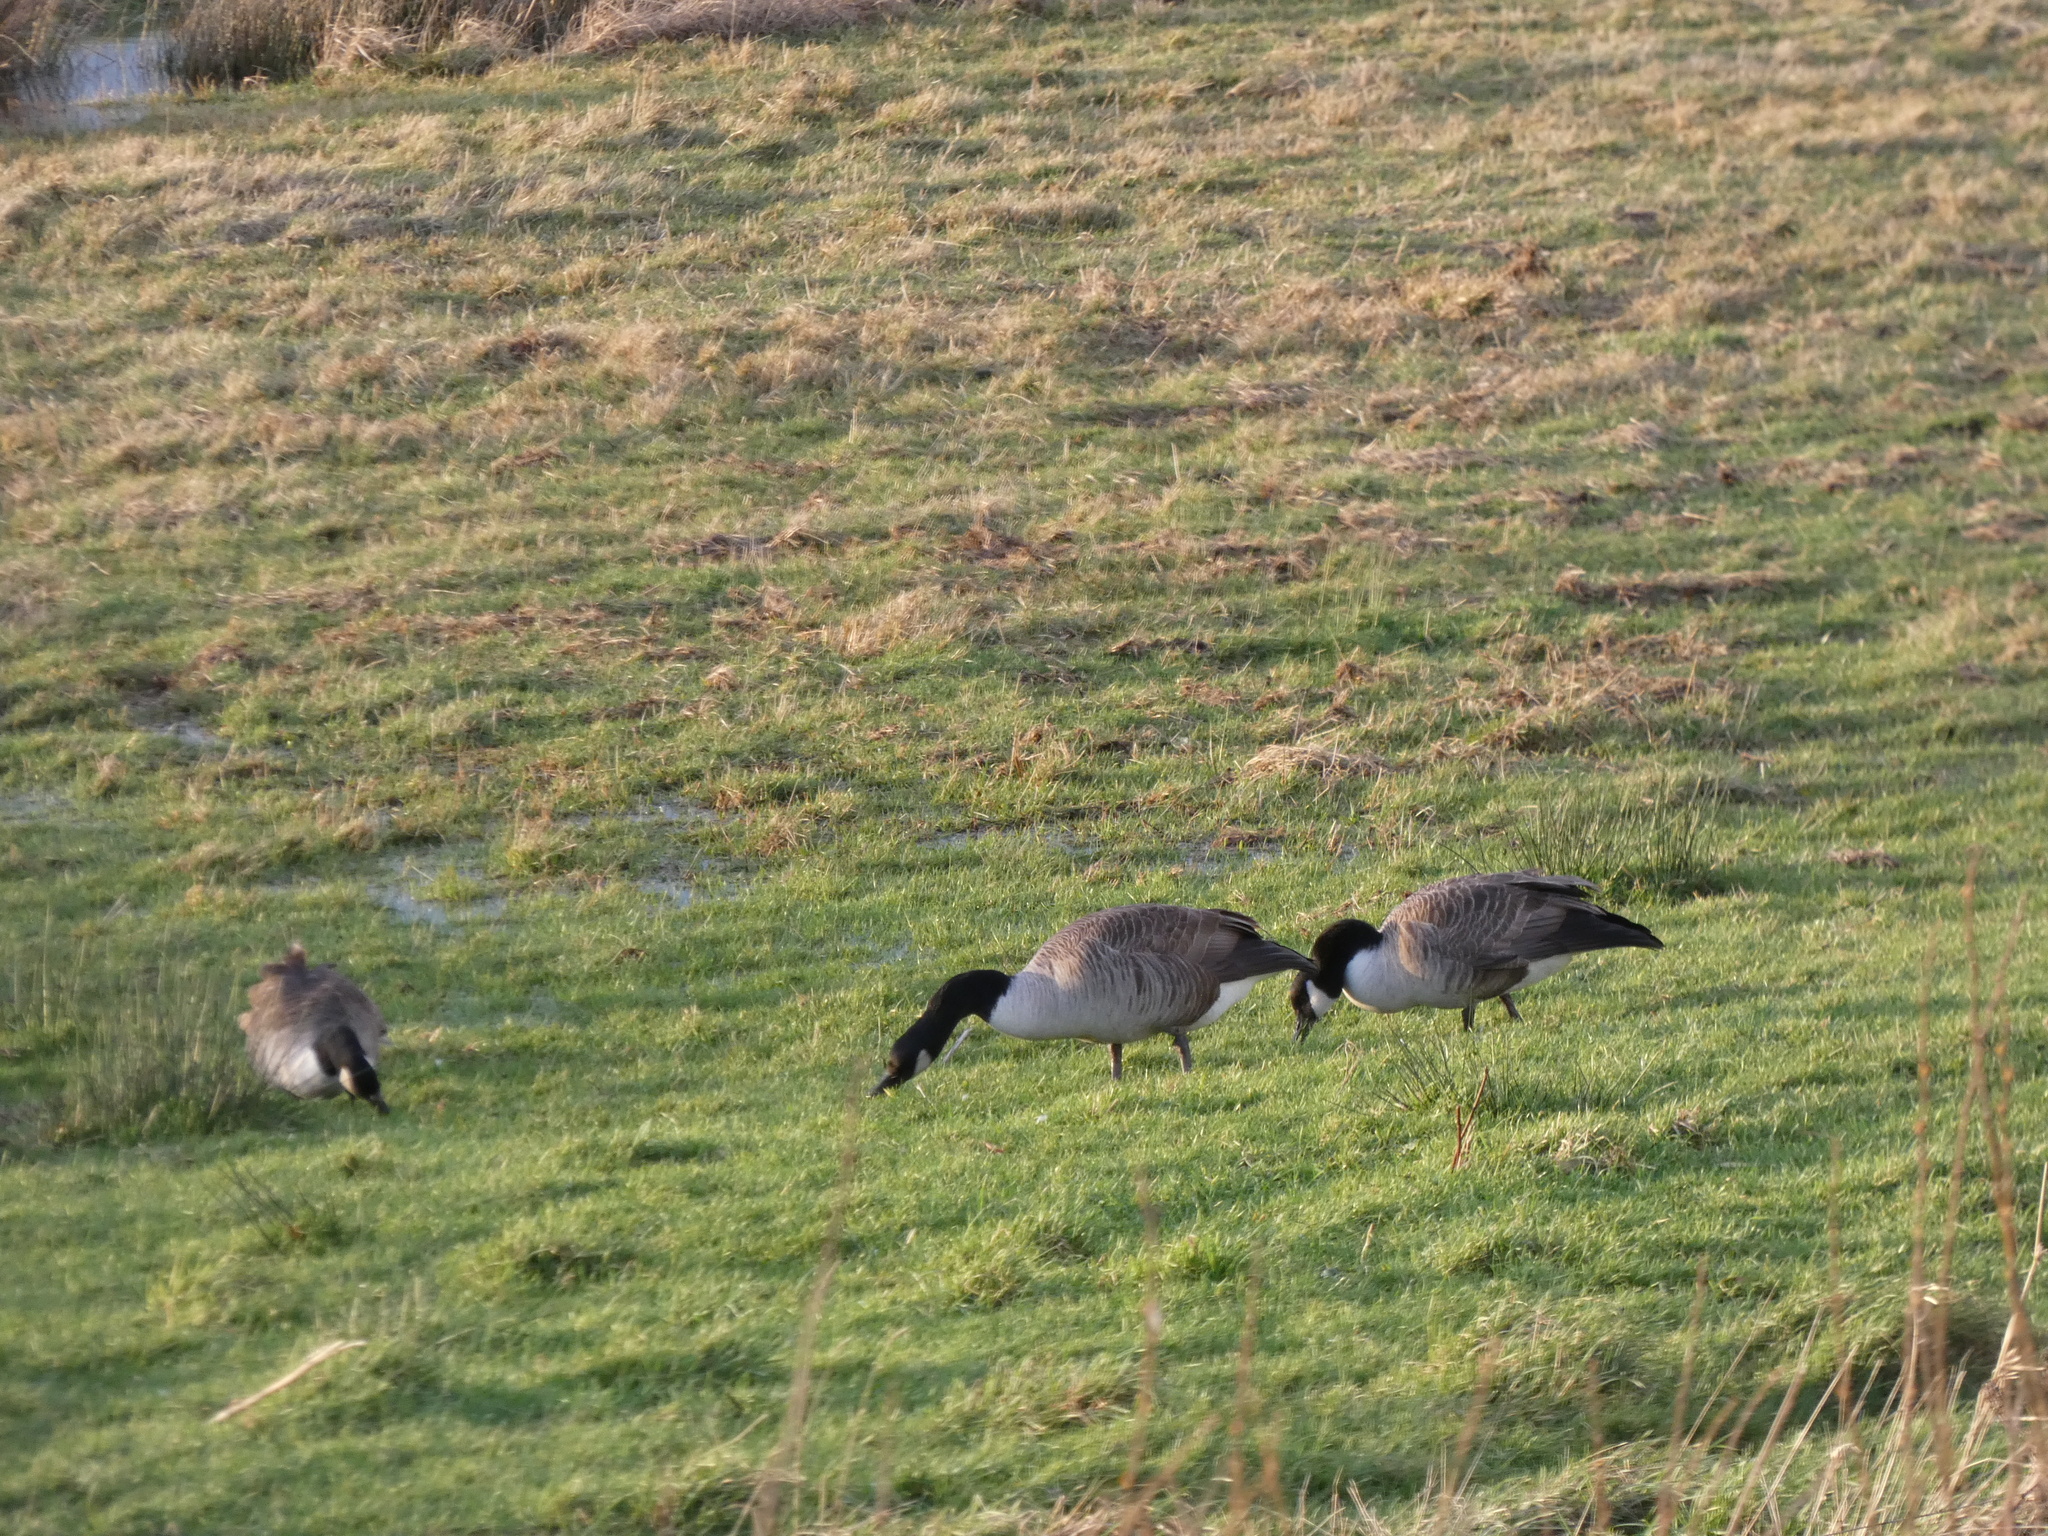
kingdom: Animalia
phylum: Chordata
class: Aves
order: Anseriformes
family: Anatidae
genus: Branta
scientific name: Branta canadensis
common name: Canada goose
